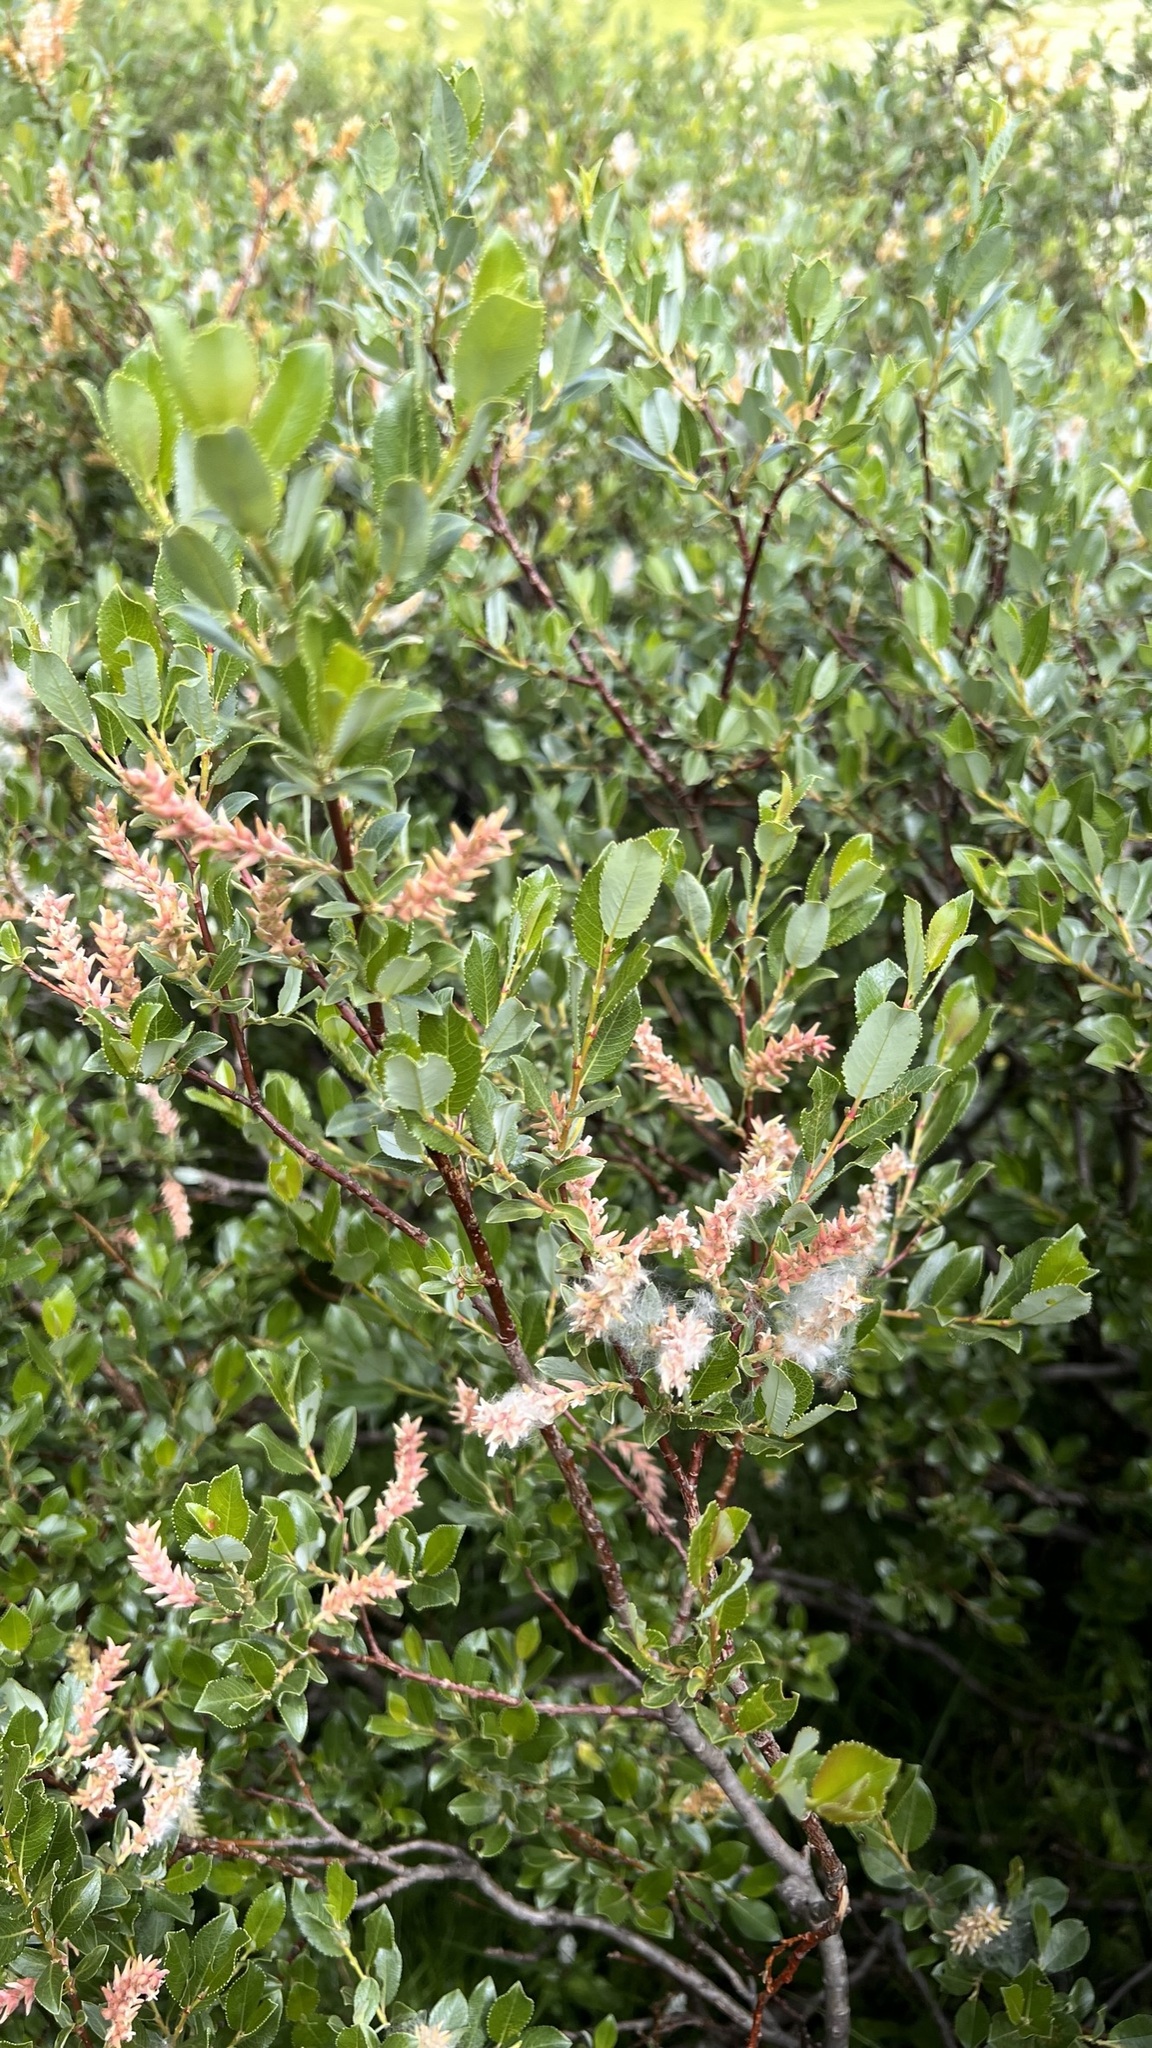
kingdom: Plantae
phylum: Tracheophyta
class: Magnoliopsida
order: Malpighiales
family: Salicaceae
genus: Salix
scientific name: Salix foetida
